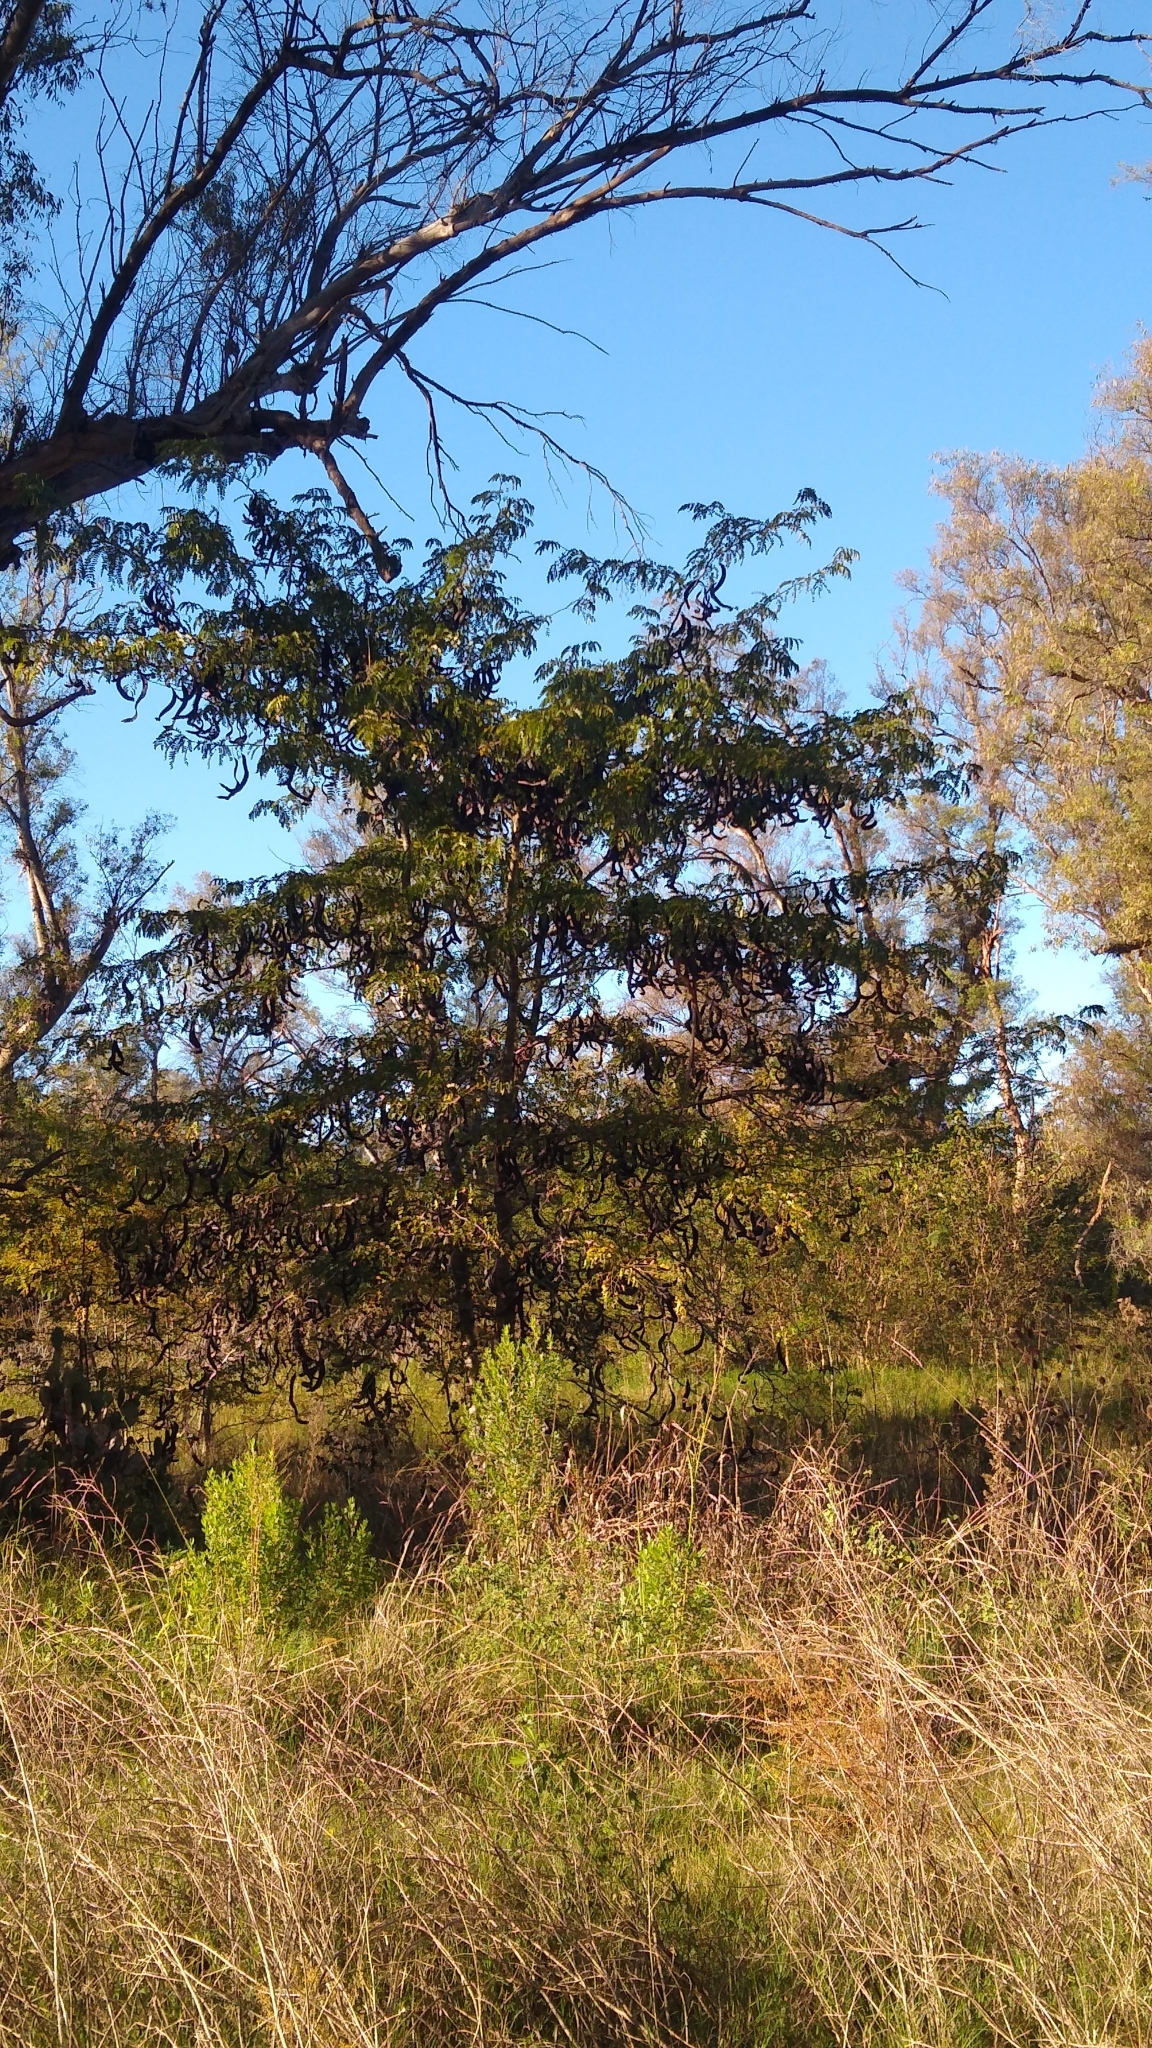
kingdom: Plantae
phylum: Tracheophyta
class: Magnoliopsida
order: Fabales
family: Fabaceae
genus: Gleditsia
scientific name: Gleditsia triacanthos
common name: Common honeylocust
